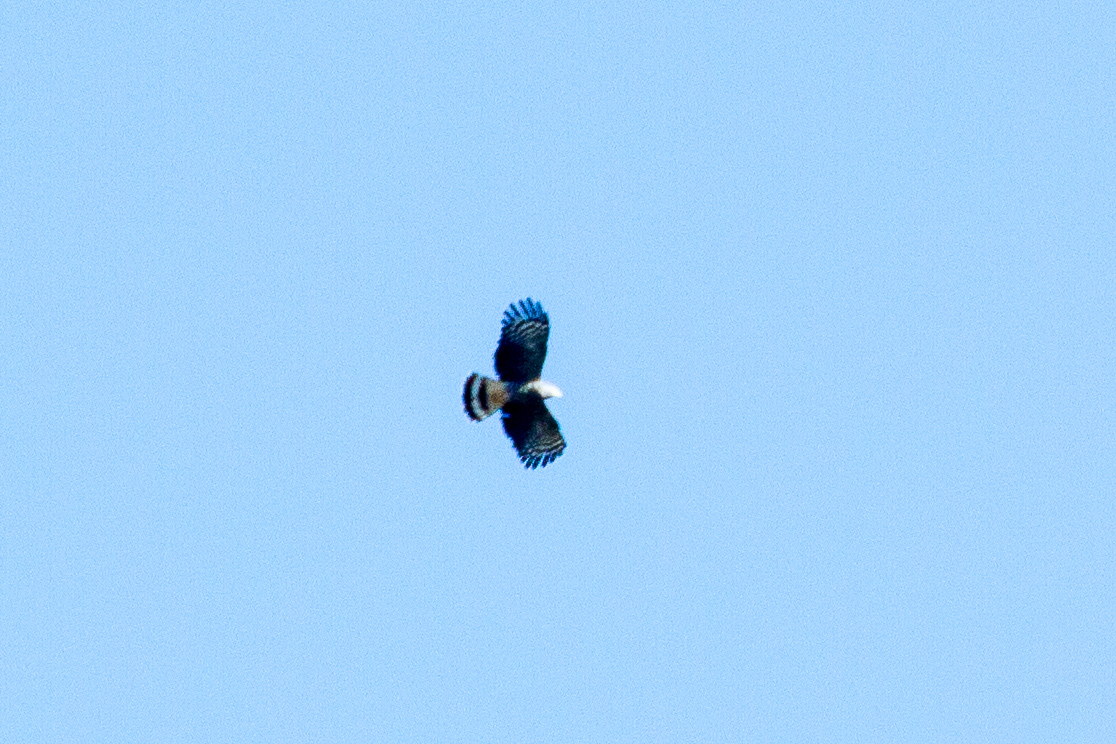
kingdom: Animalia
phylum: Chordata
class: Aves
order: Accipitriformes
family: Accipitridae
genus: Chondrohierax
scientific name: Chondrohierax uncinatus
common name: Hook-billed kite
